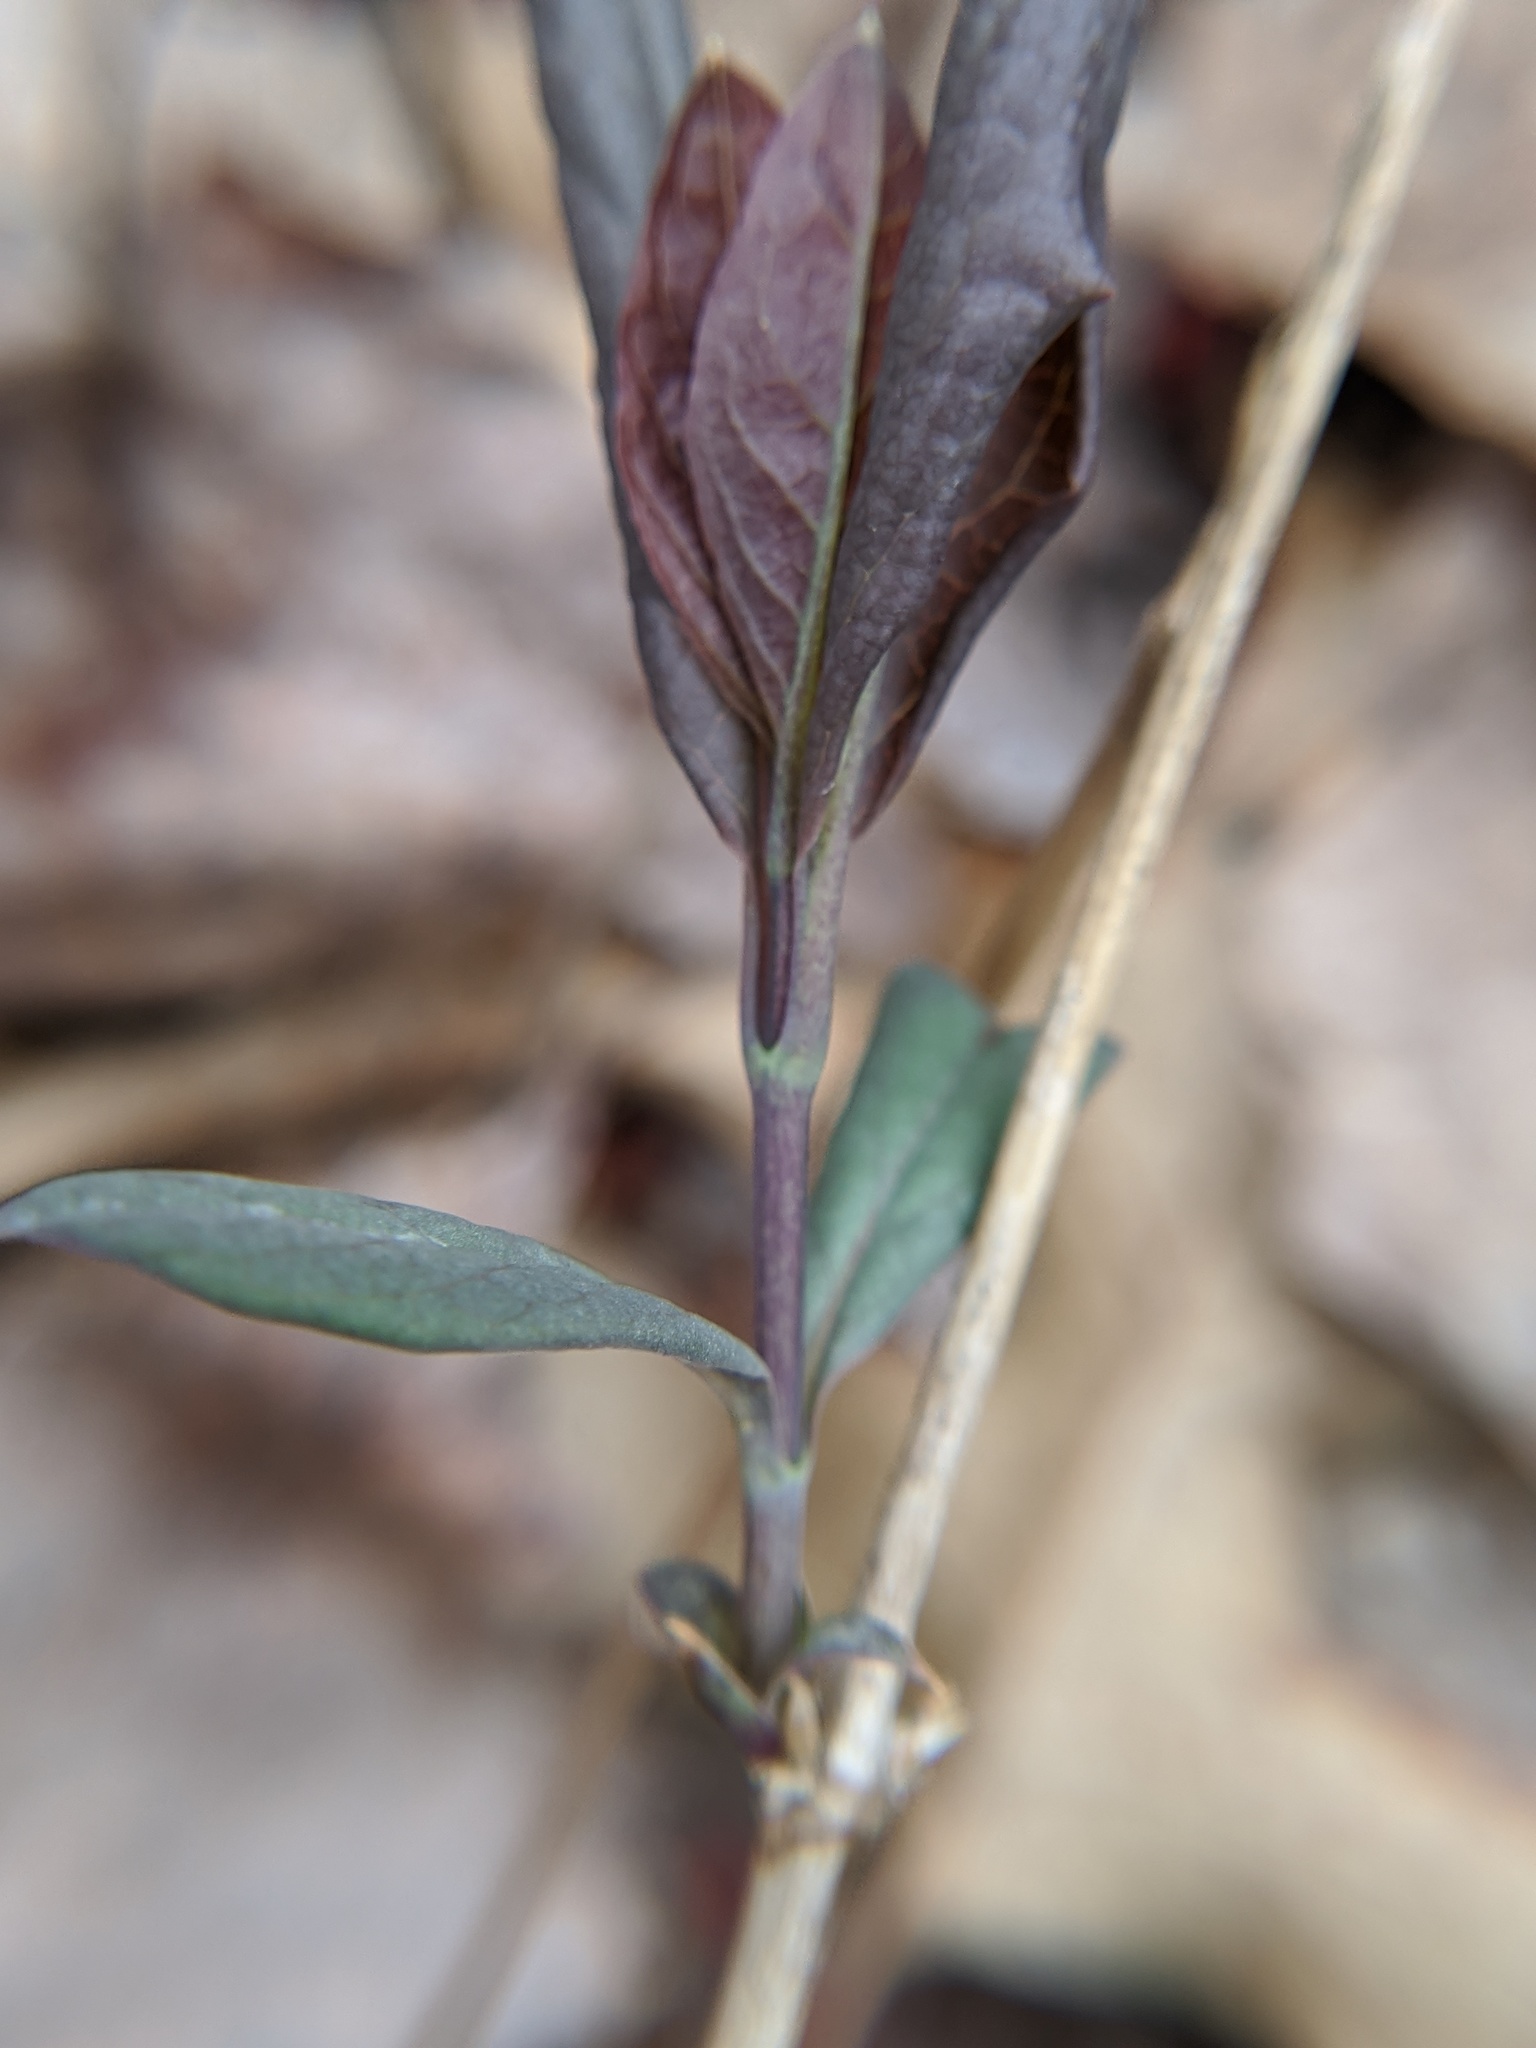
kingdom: Plantae
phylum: Tracheophyta
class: Magnoliopsida
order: Dipsacales
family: Caprifoliaceae
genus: Lonicera
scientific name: Lonicera dioica
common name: Limber honeysuckle
